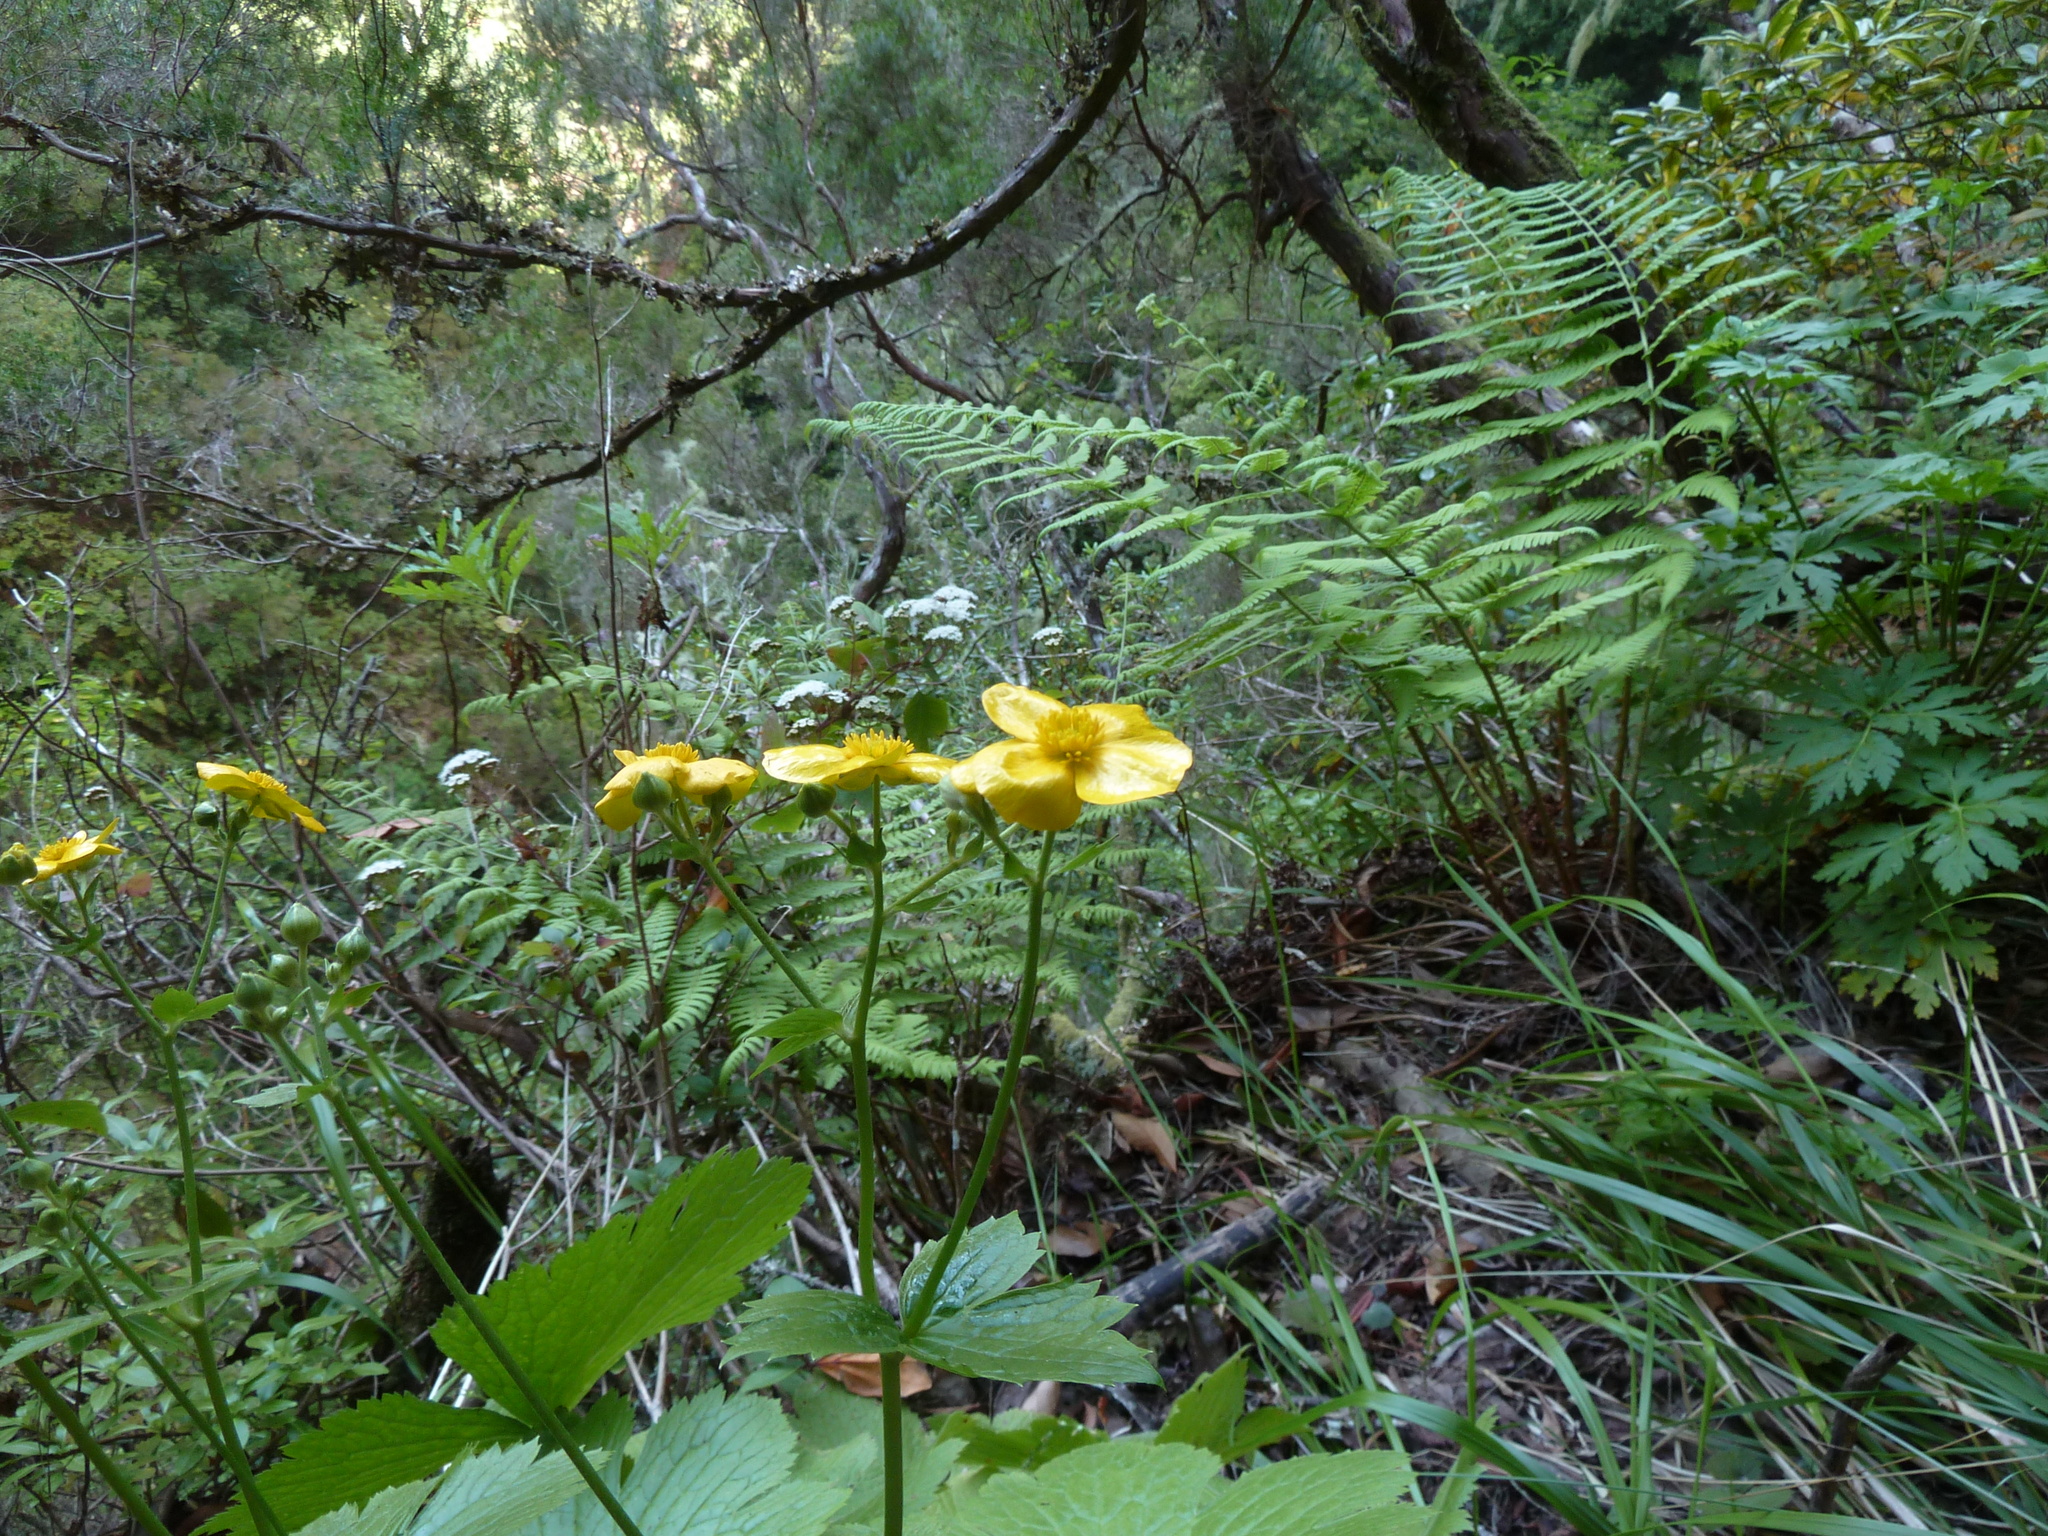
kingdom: Plantae
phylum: Tracheophyta
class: Magnoliopsida
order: Ranunculales
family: Ranunculaceae
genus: Ranunculus
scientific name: Ranunculus cortusifolius
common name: Azores buttercup
